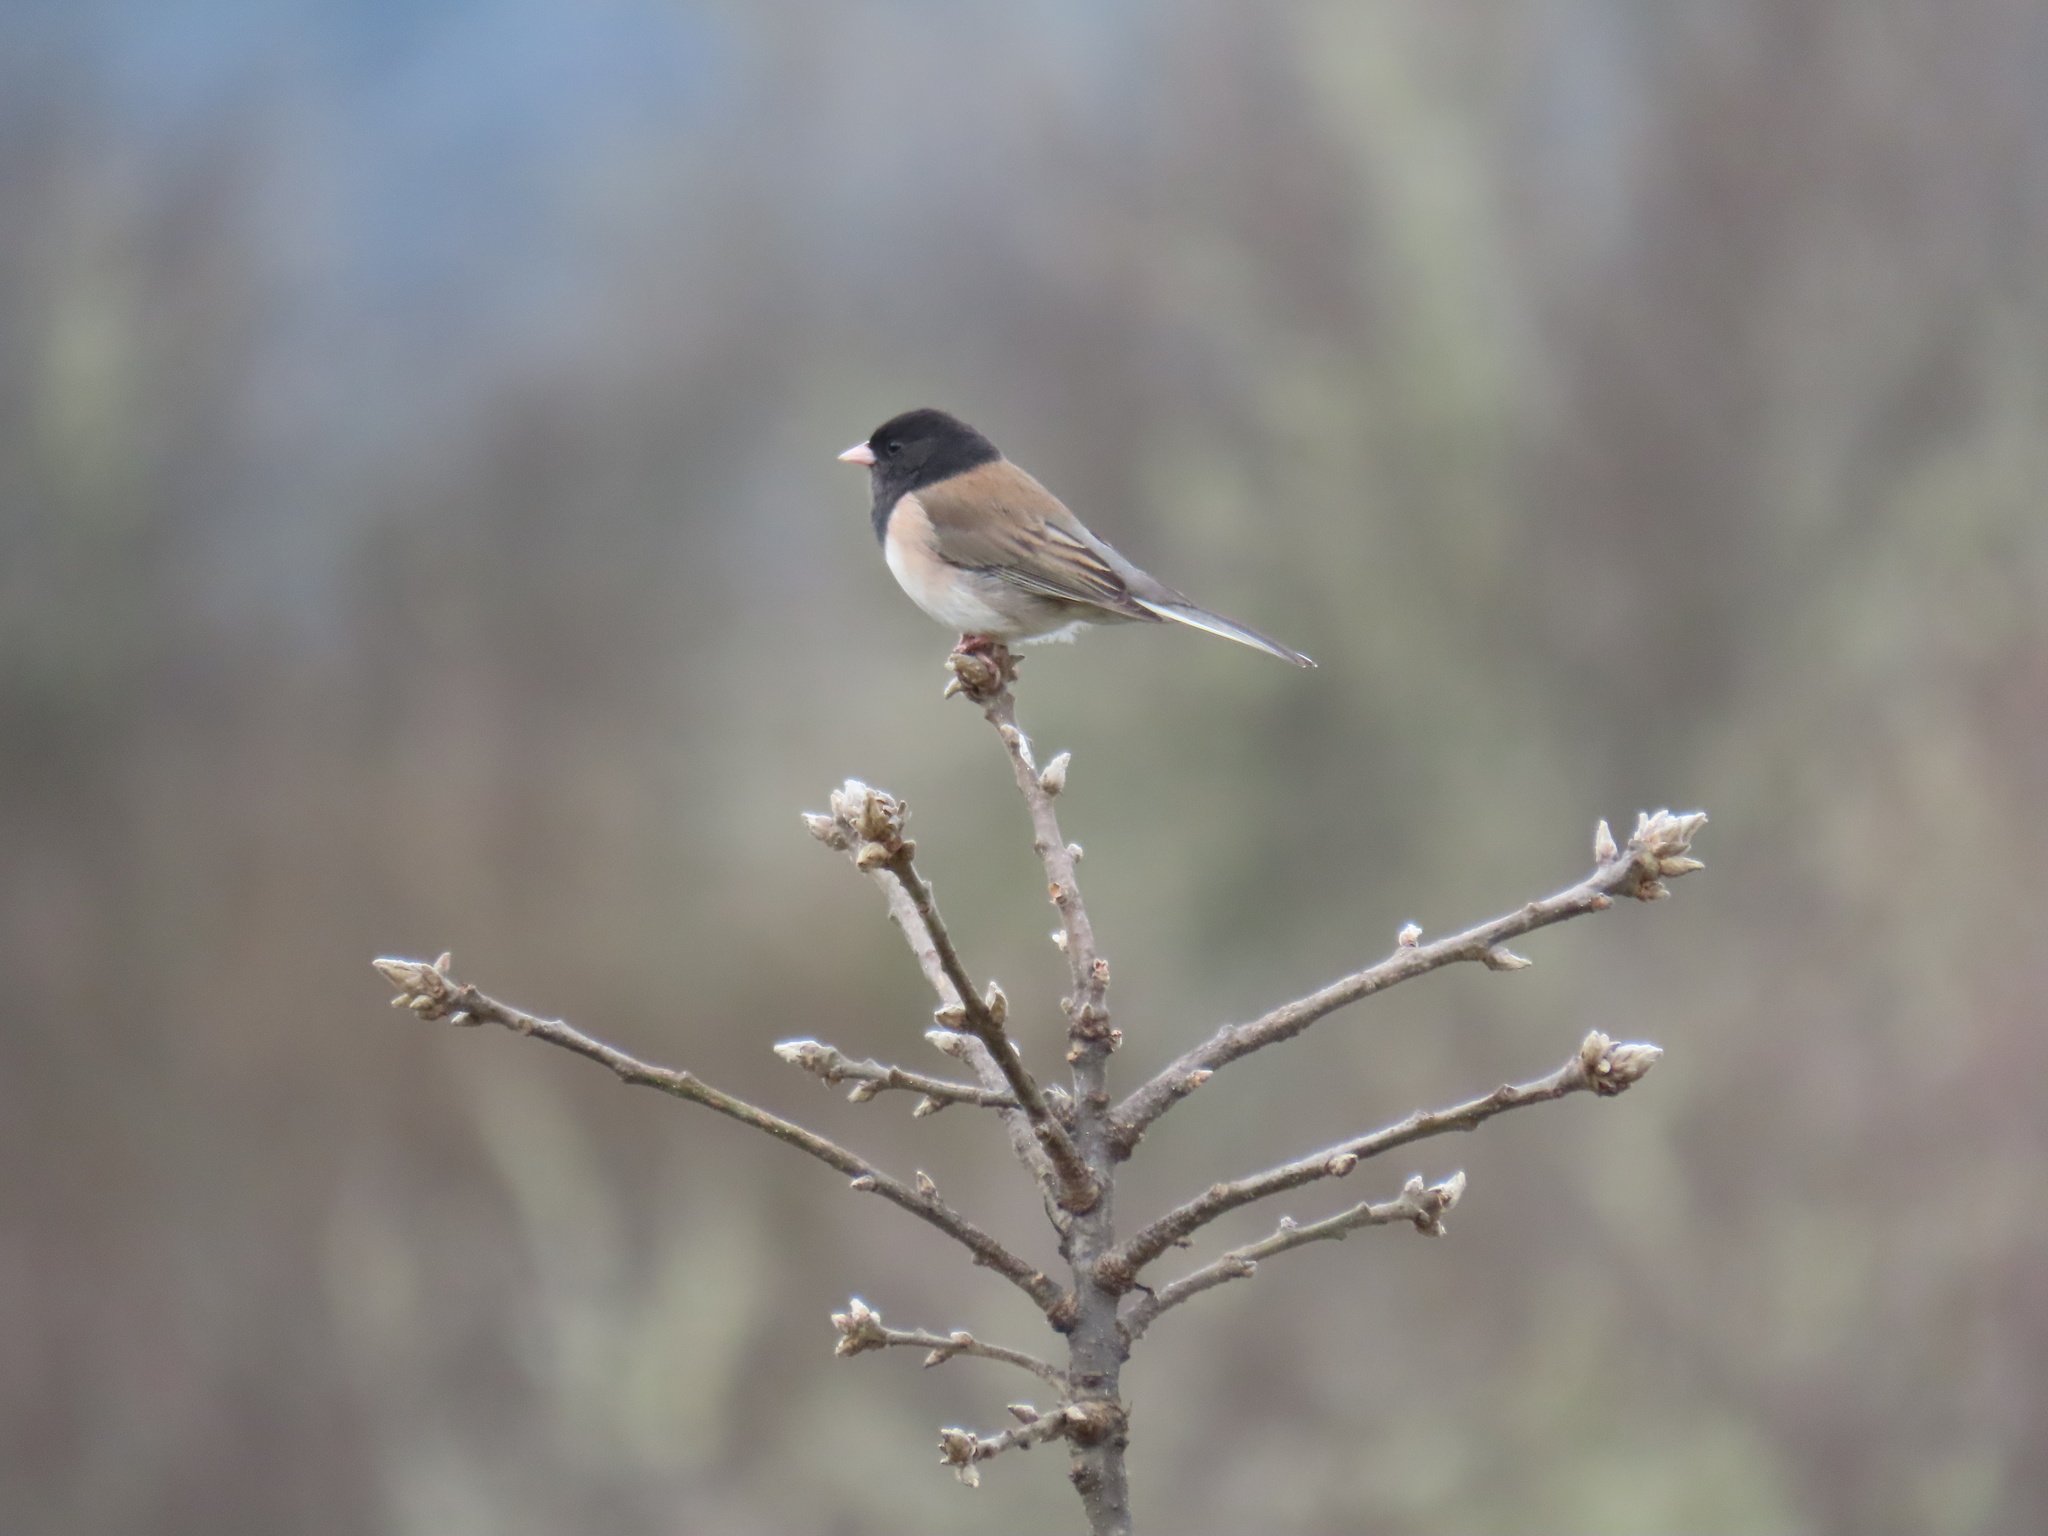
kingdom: Animalia
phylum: Chordata
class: Aves
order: Passeriformes
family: Passerellidae
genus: Junco
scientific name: Junco hyemalis
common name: Dark-eyed junco
